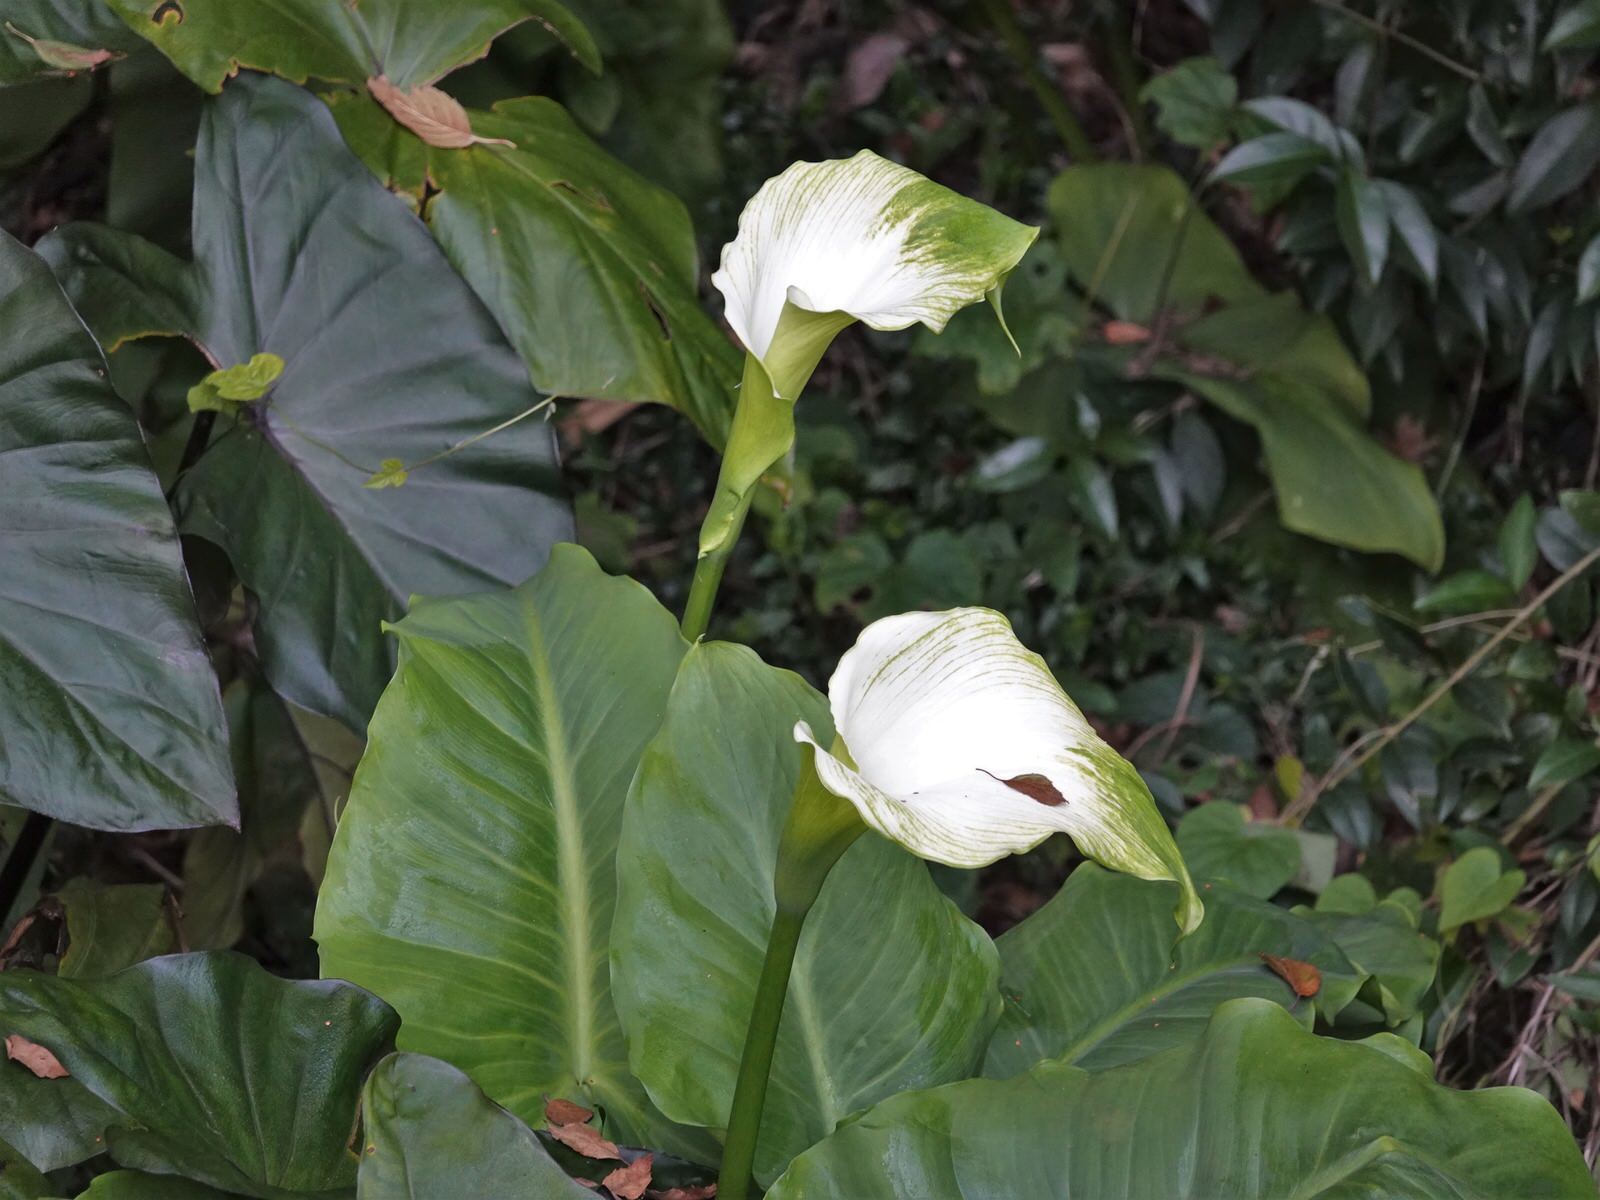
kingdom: Plantae
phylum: Tracheophyta
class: Liliopsida
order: Alismatales
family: Araceae
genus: Zantedeschia
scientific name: Zantedeschia aethiopica
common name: Altar-lily
